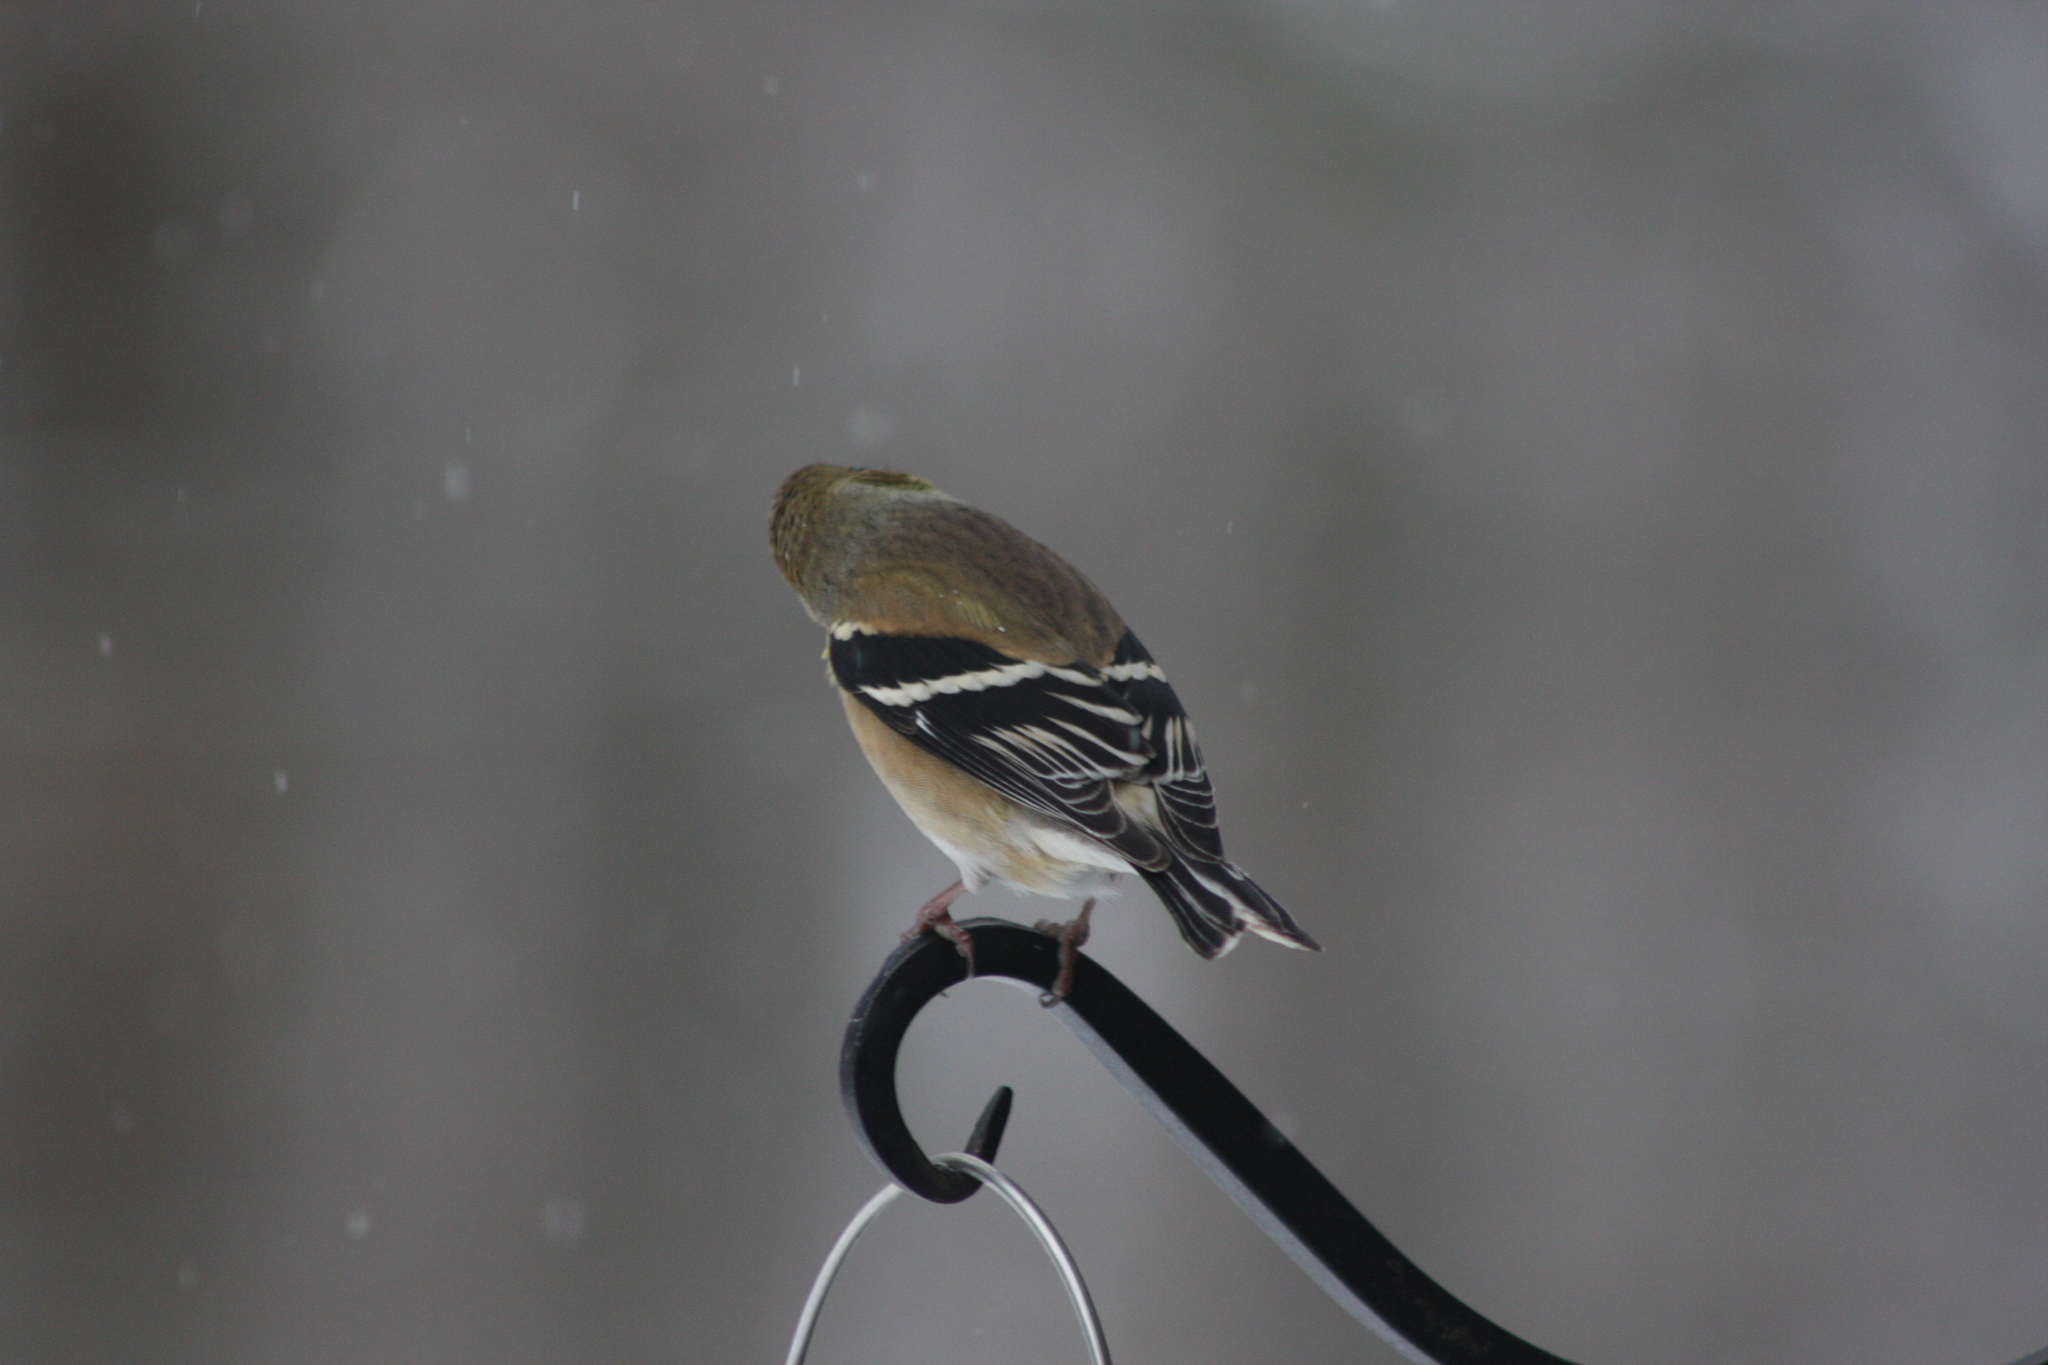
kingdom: Animalia
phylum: Chordata
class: Aves
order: Passeriformes
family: Fringillidae
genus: Spinus
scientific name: Spinus tristis
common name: American goldfinch
